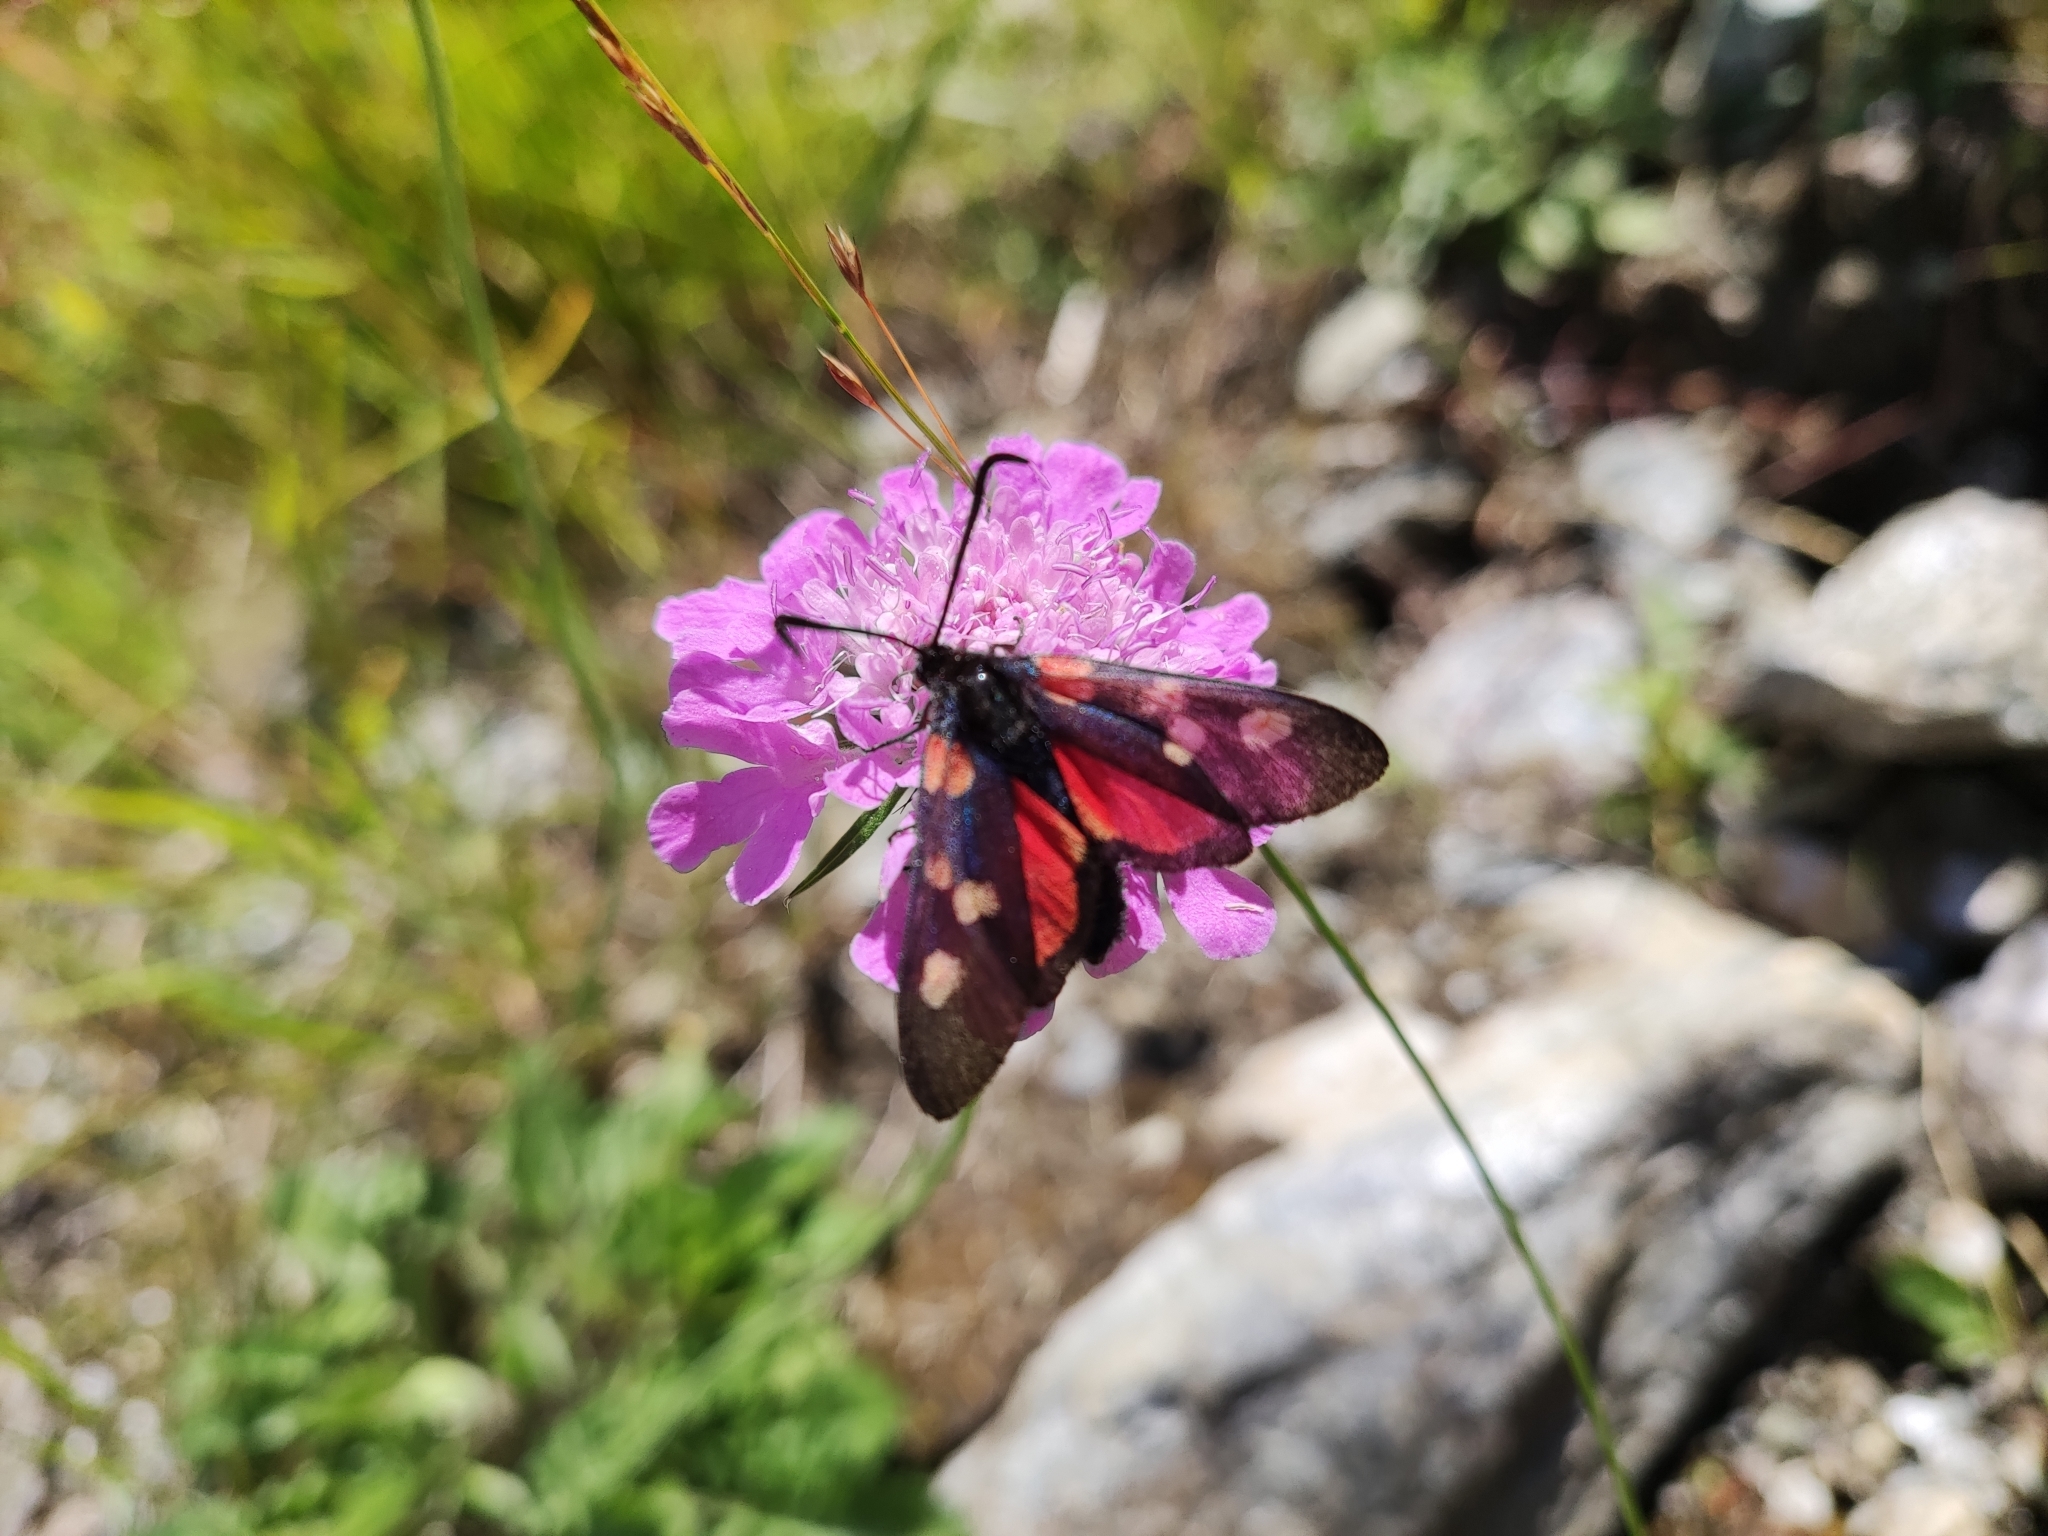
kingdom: Animalia
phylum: Arthropoda
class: Insecta
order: Lepidoptera
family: Zygaenidae
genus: Zygaena
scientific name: Zygaena lonicerae
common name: Narrow-bordered five-spot burnet
